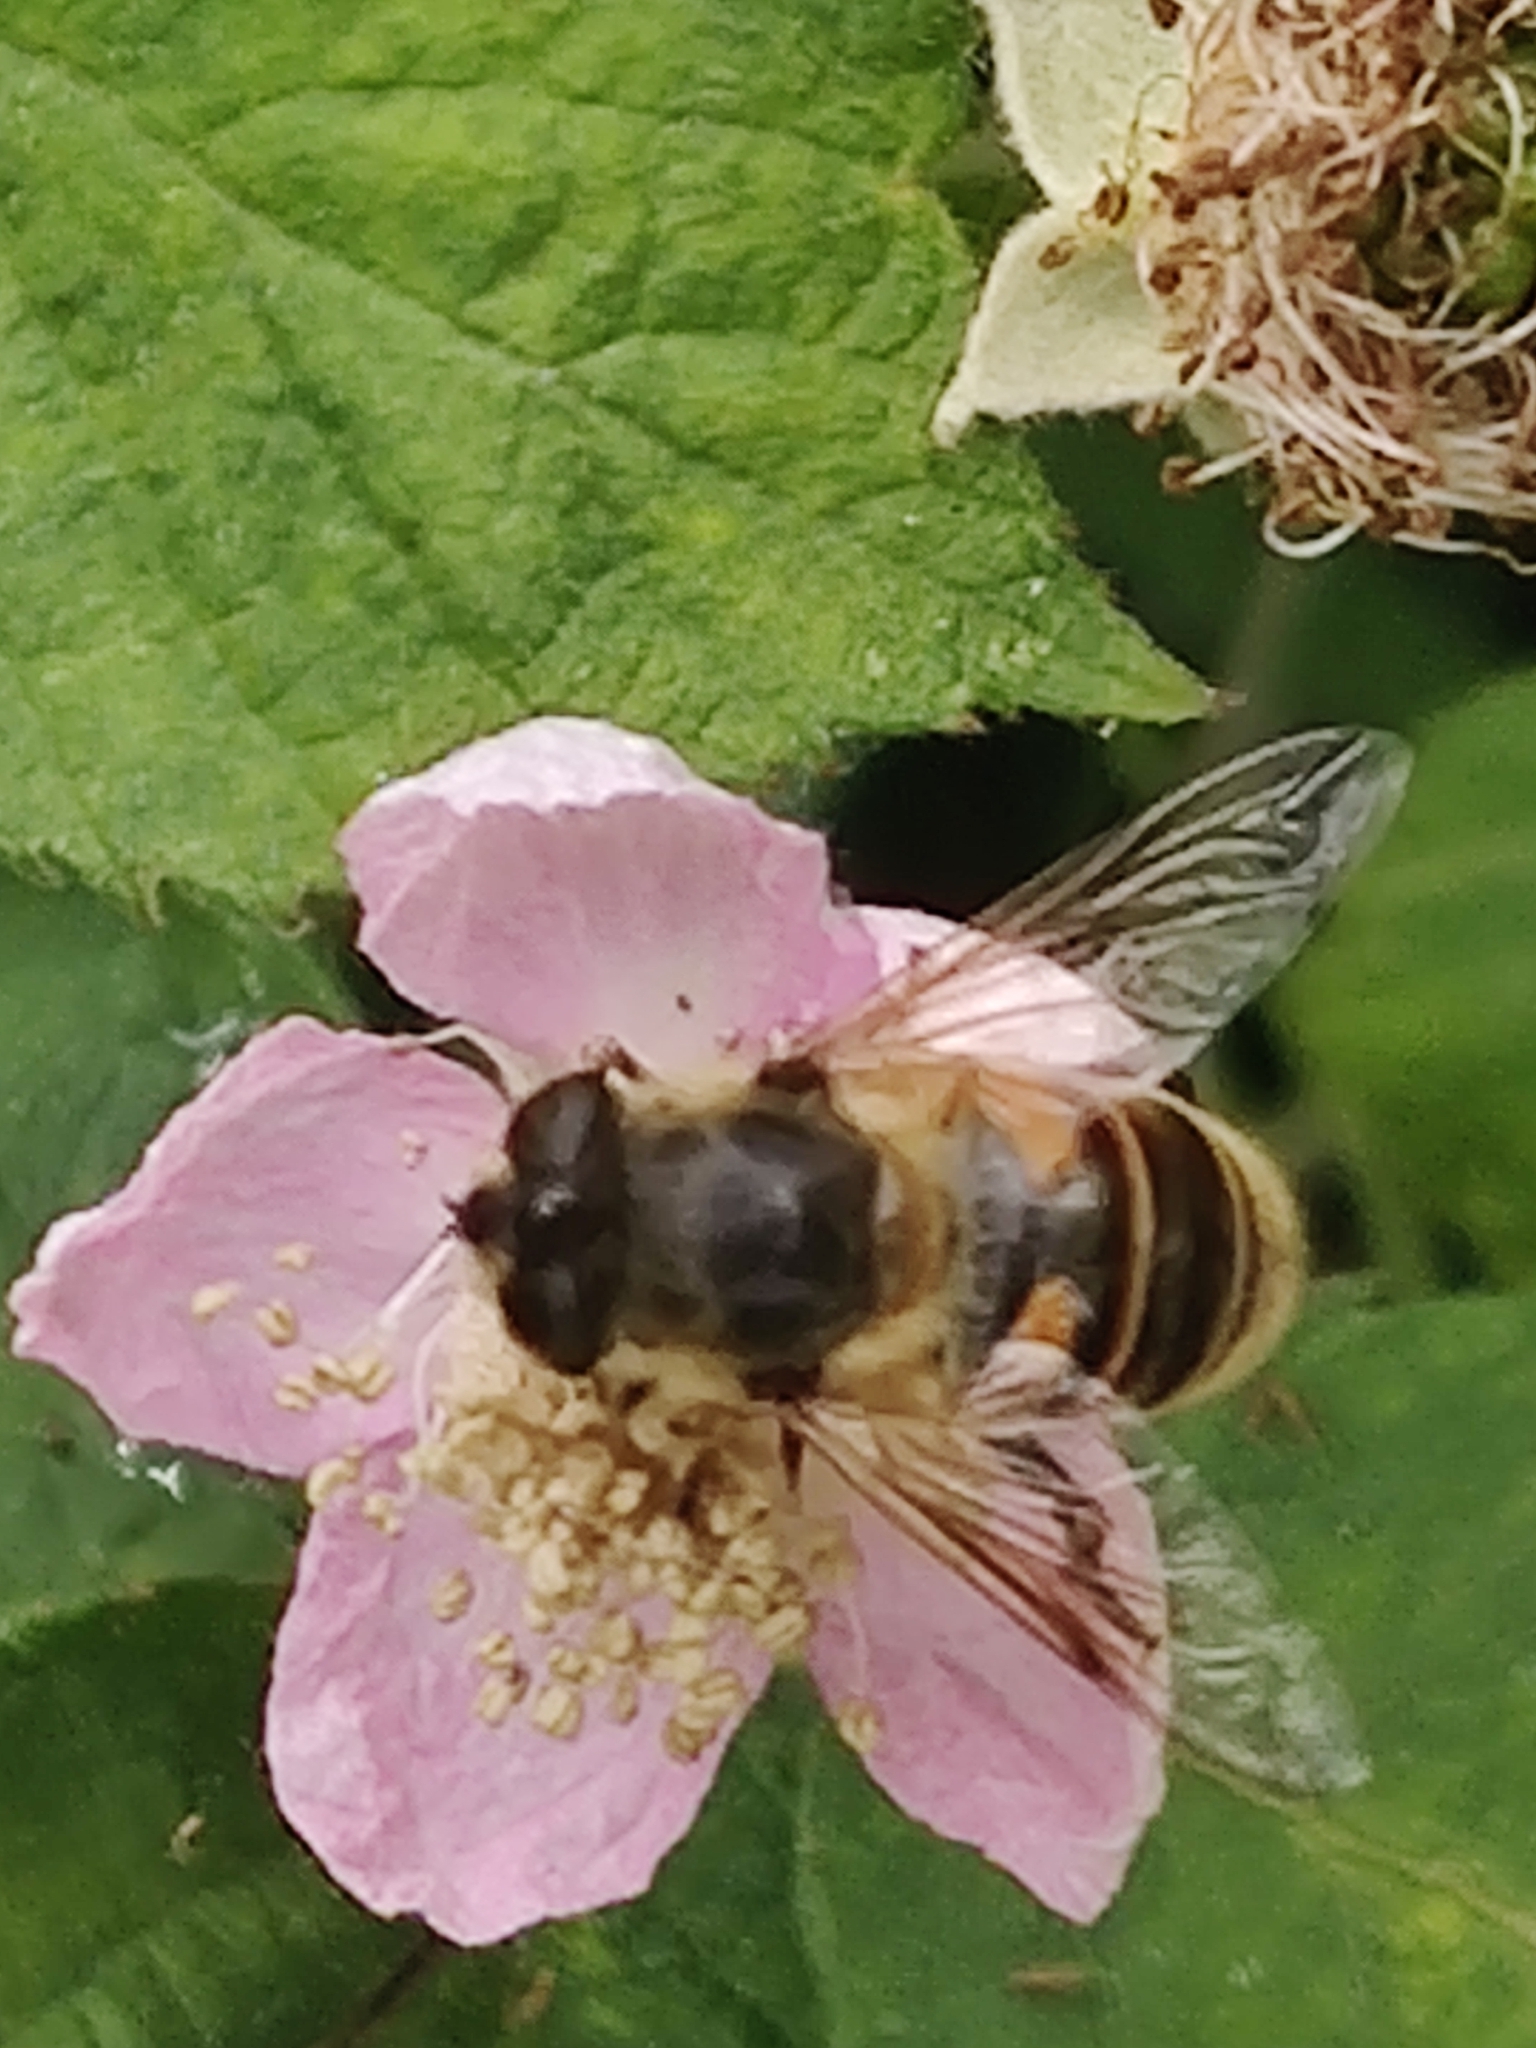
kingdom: Animalia
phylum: Arthropoda
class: Insecta
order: Diptera
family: Syrphidae
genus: Eristalis
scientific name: Eristalis tenax
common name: Drone fly
